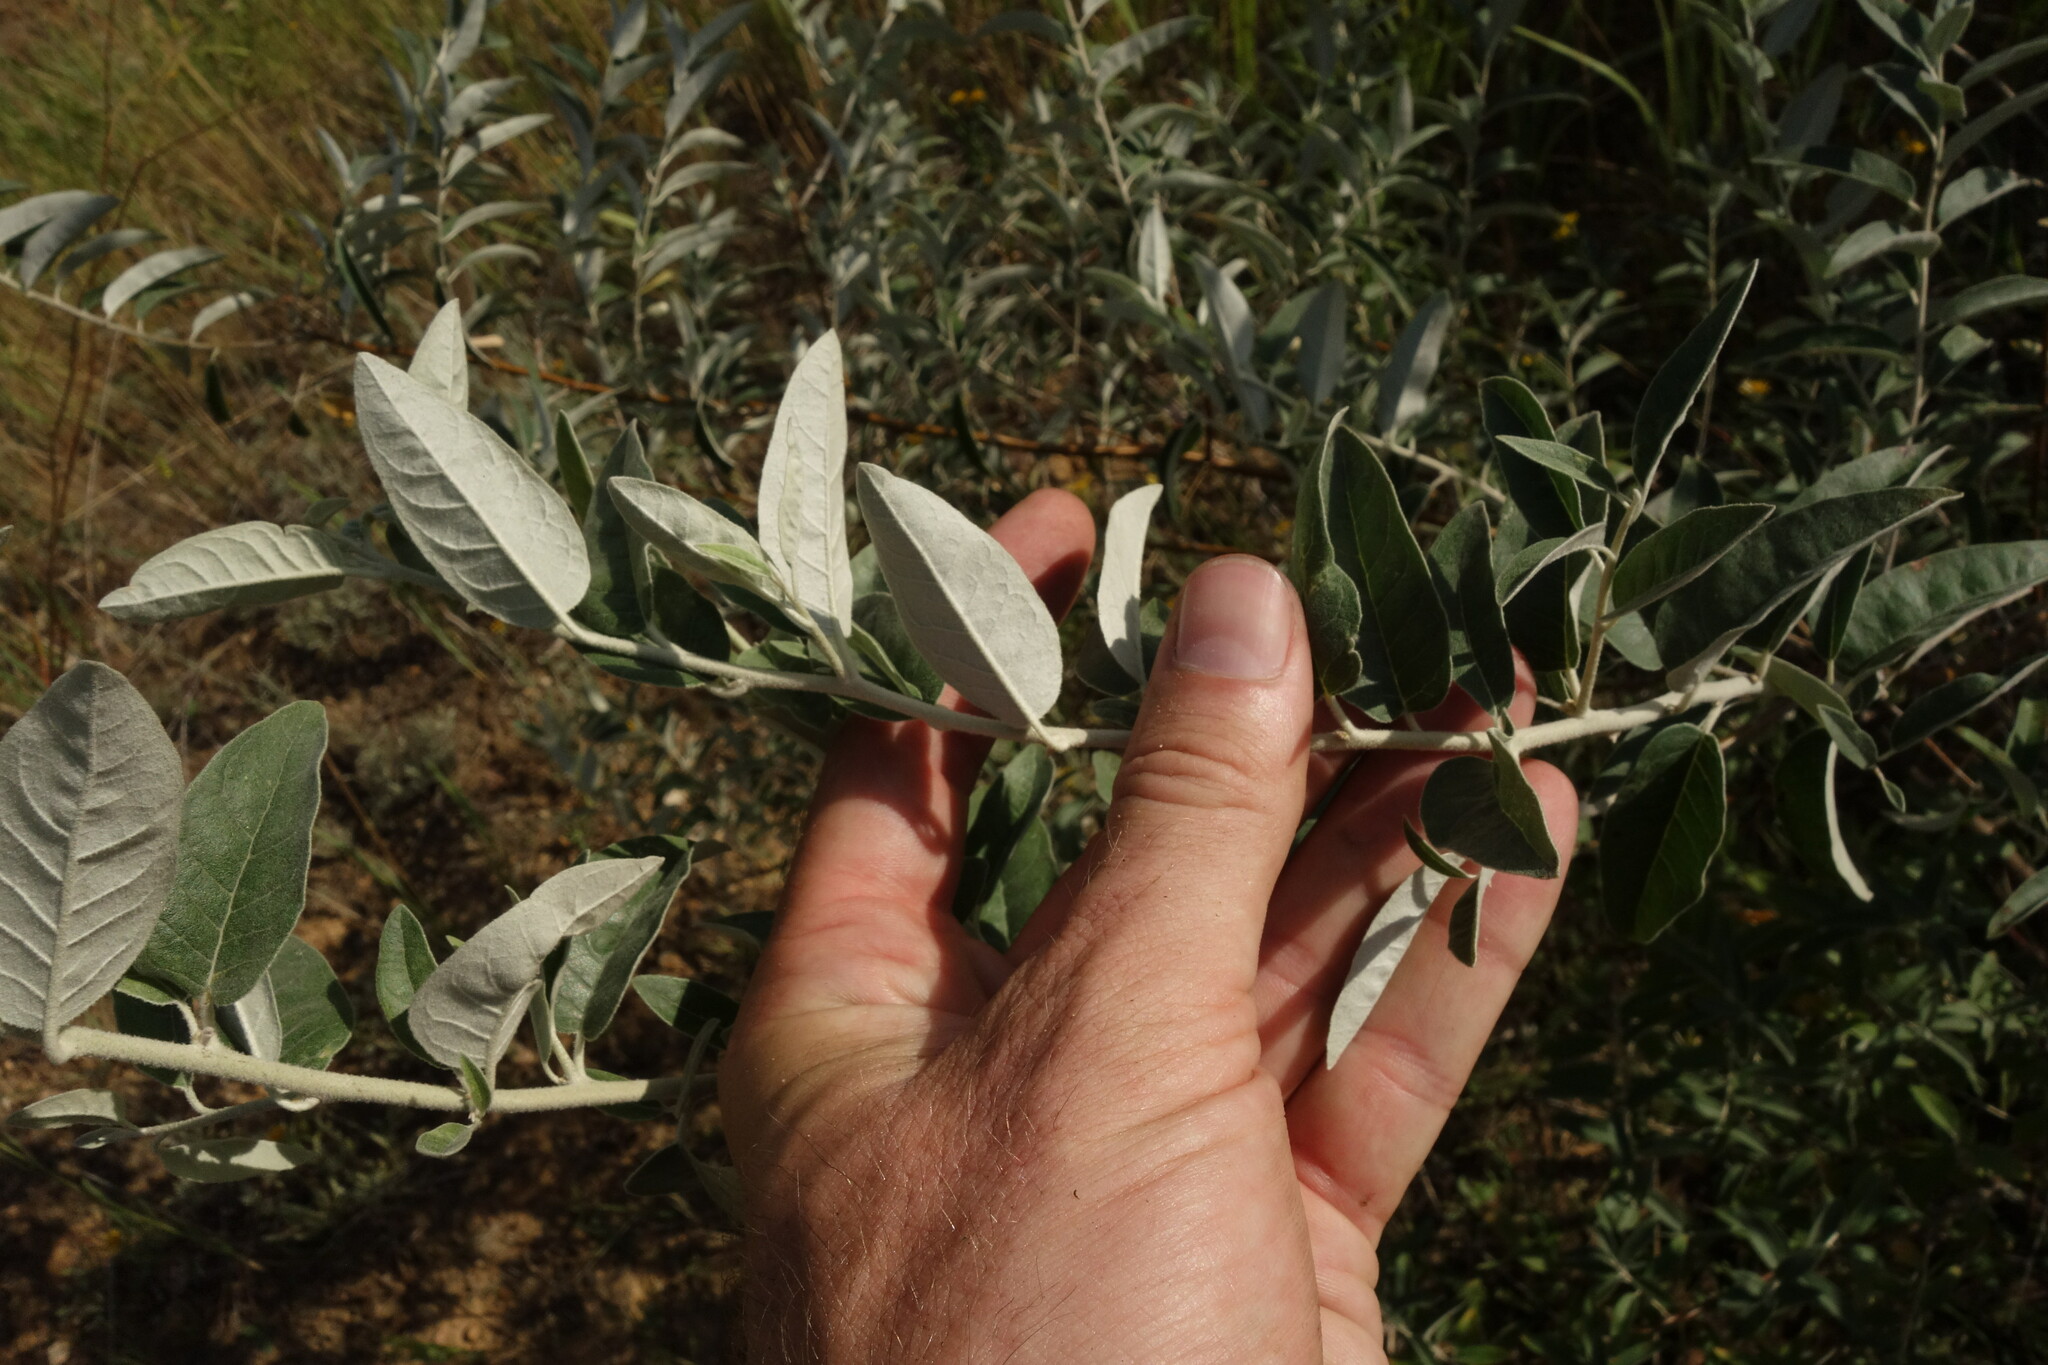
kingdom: Plantae
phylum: Tracheophyta
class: Magnoliopsida
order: Rosales
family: Elaeagnaceae
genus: Elaeagnus
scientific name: Elaeagnus angustifolia
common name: Russian olive
